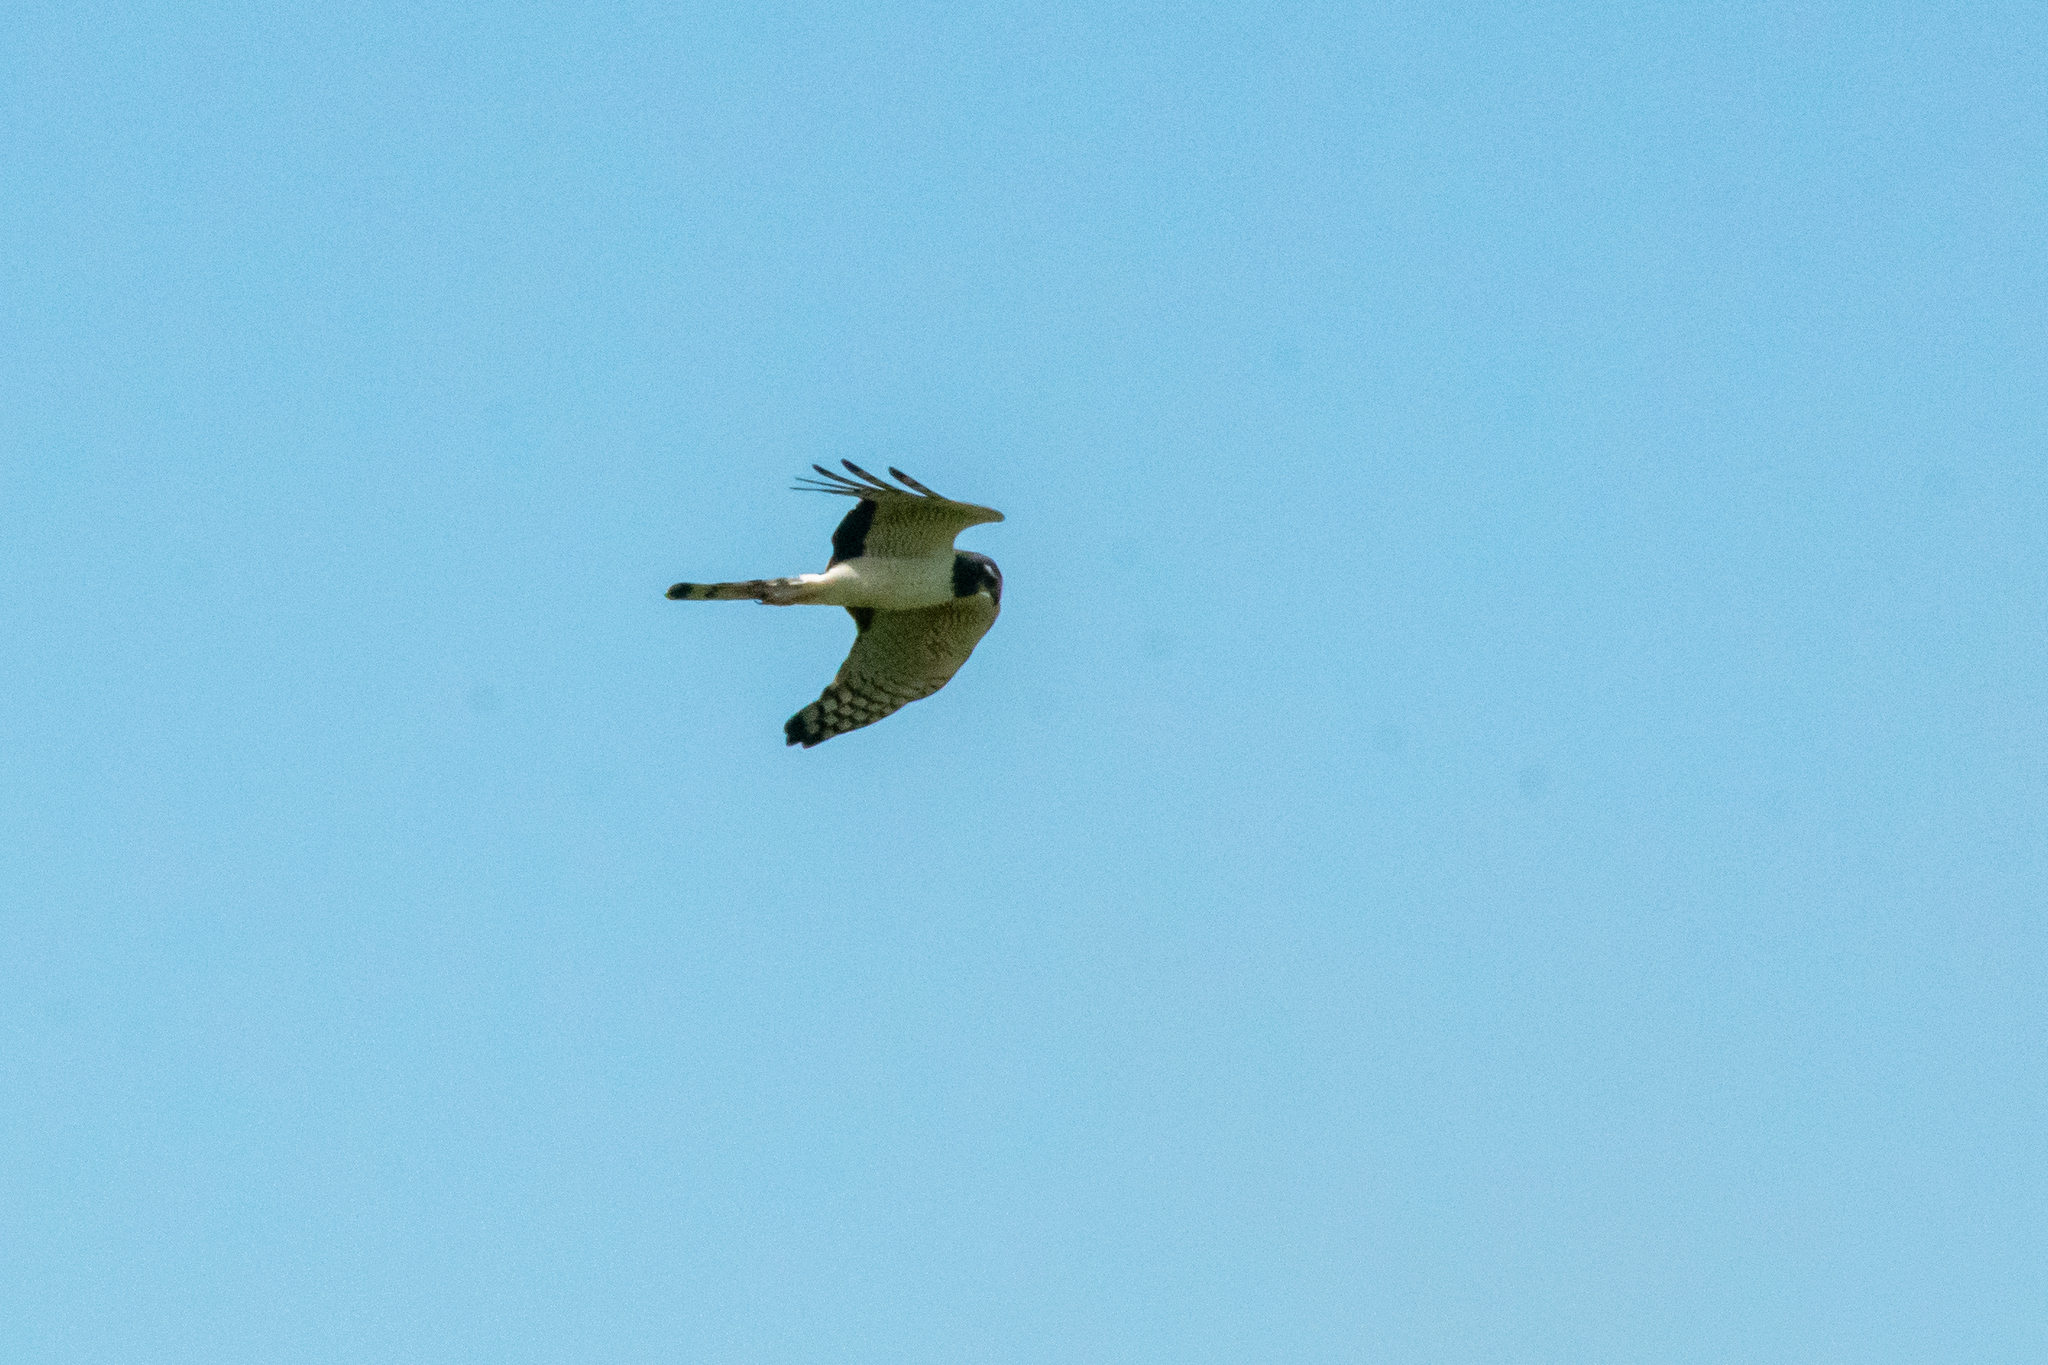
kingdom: Animalia
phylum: Chordata
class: Aves
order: Accipitriformes
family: Accipitridae
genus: Circus
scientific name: Circus buffoni
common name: Long-winged harrier
